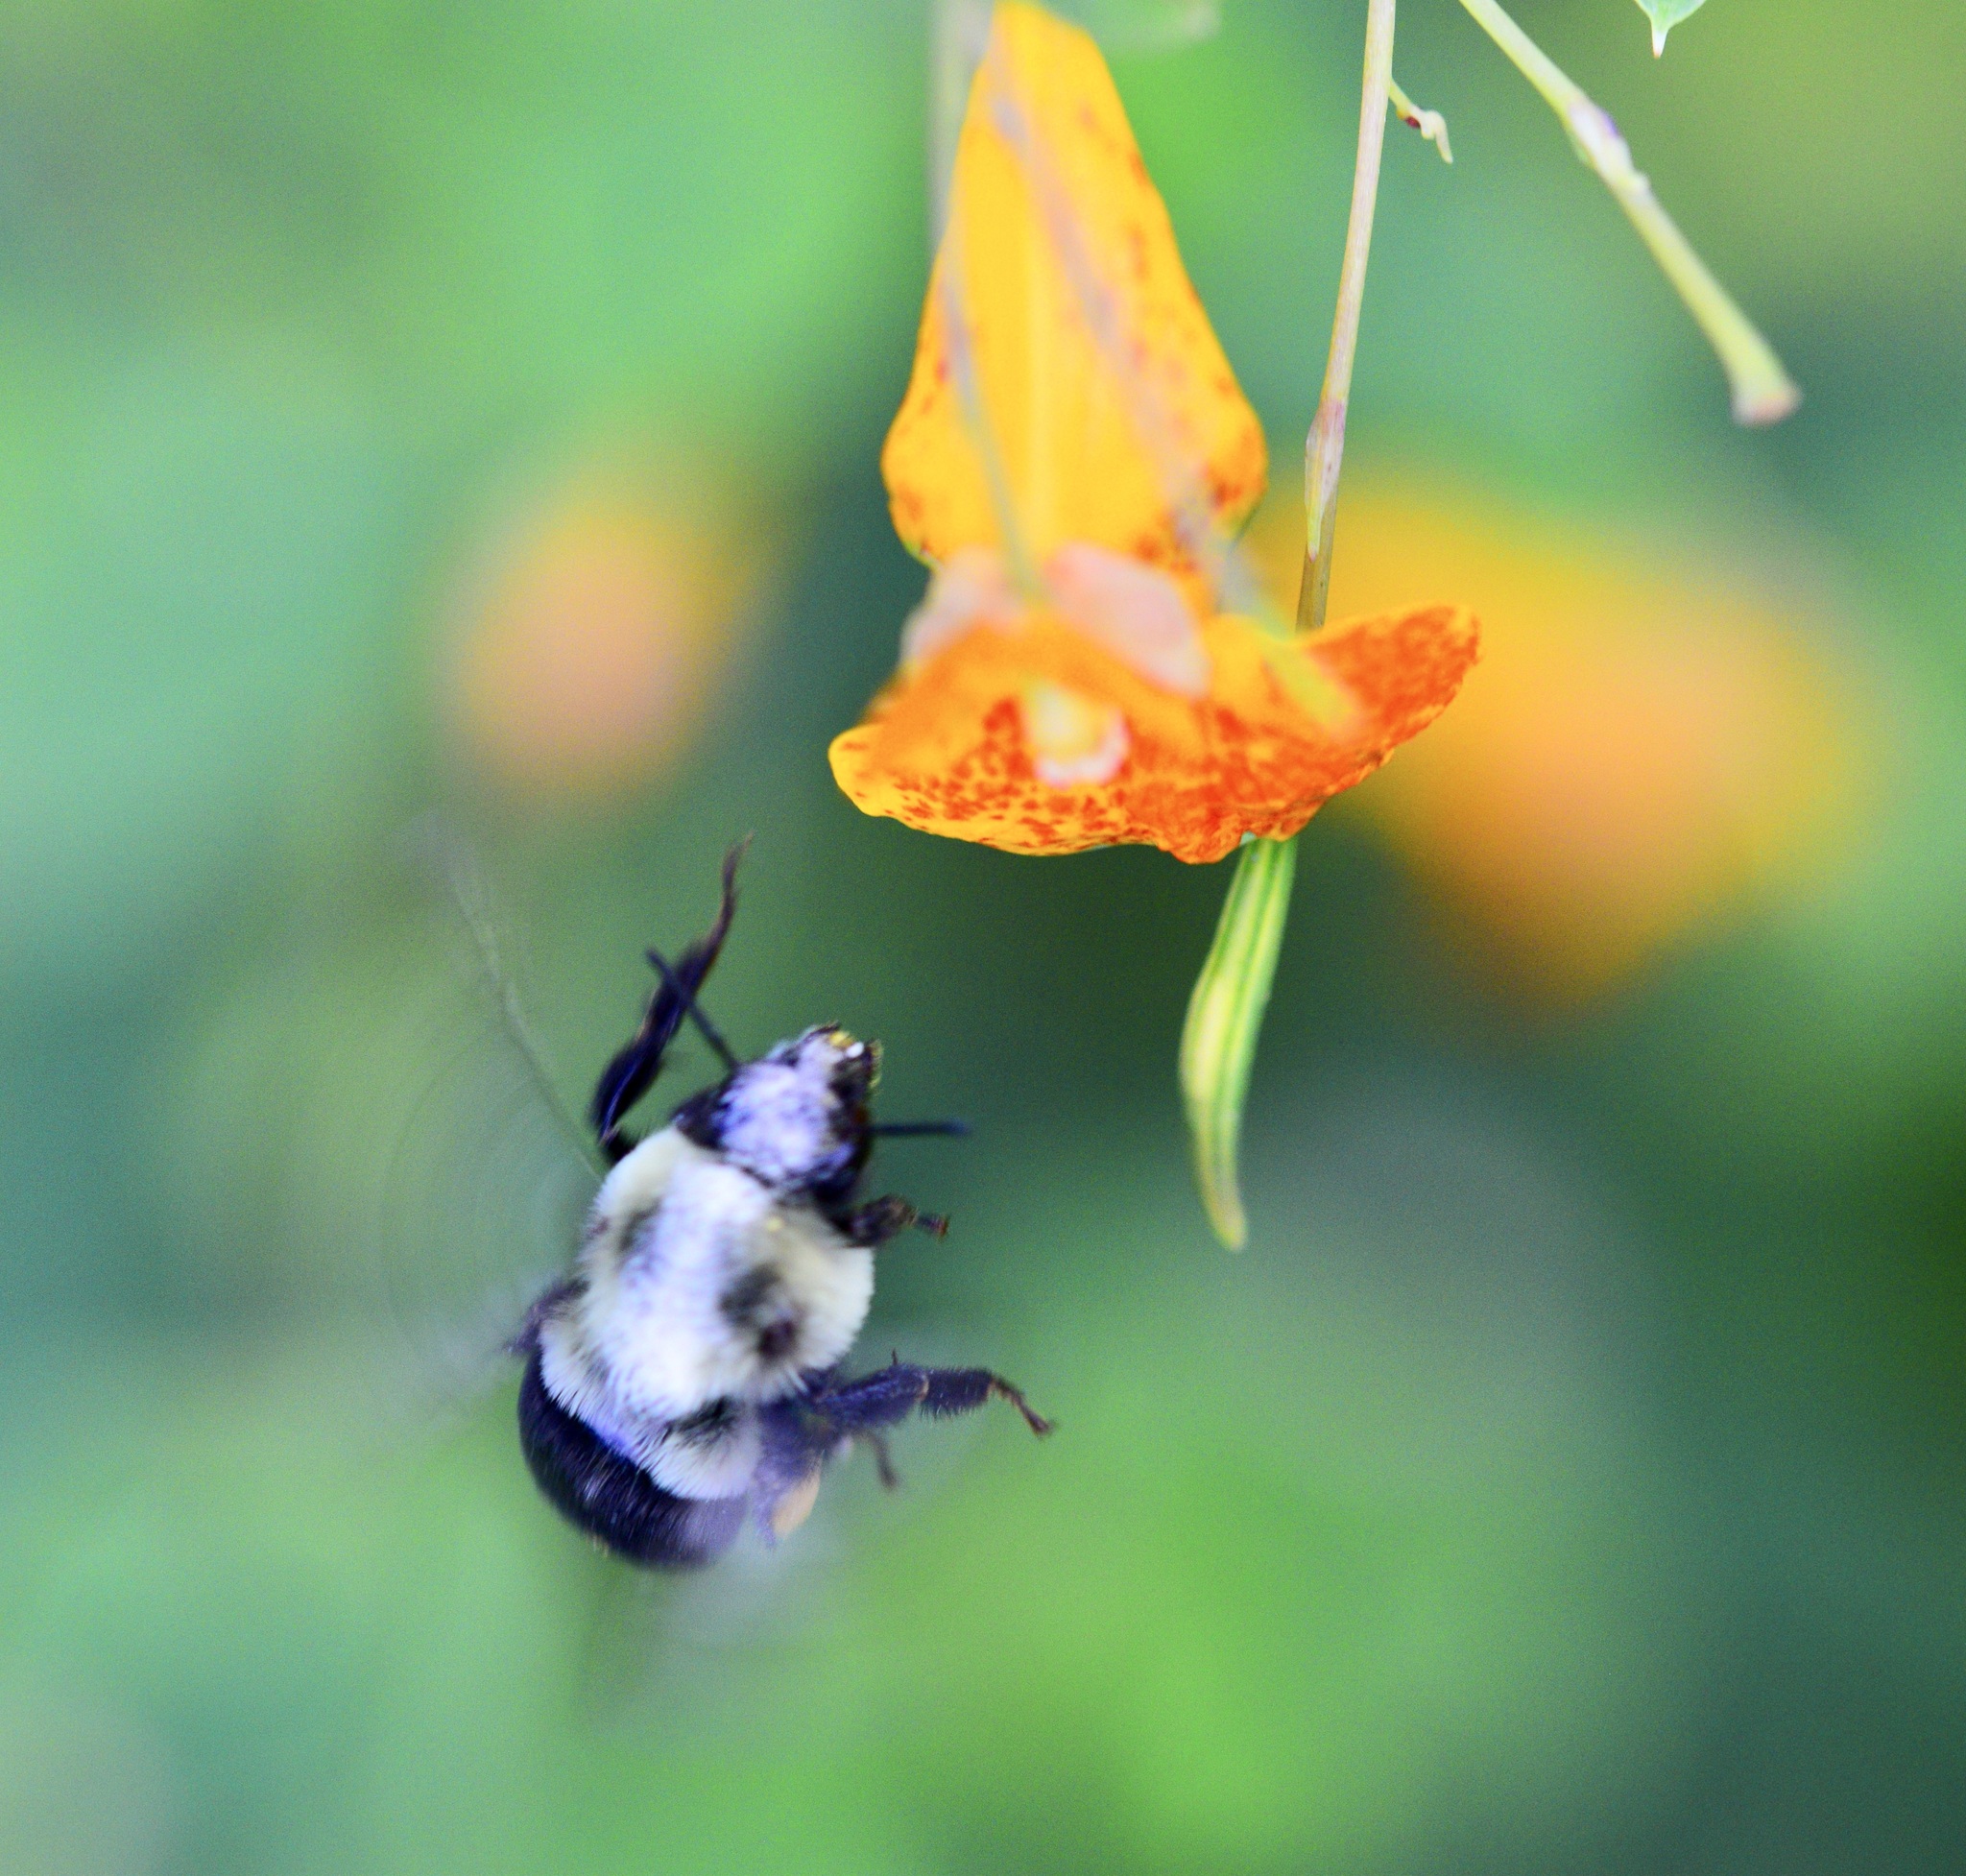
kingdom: Animalia
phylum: Arthropoda
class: Insecta
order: Hymenoptera
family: Apidae
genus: Bombus
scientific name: Bombus impatiens
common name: Common eastern bumble bee
